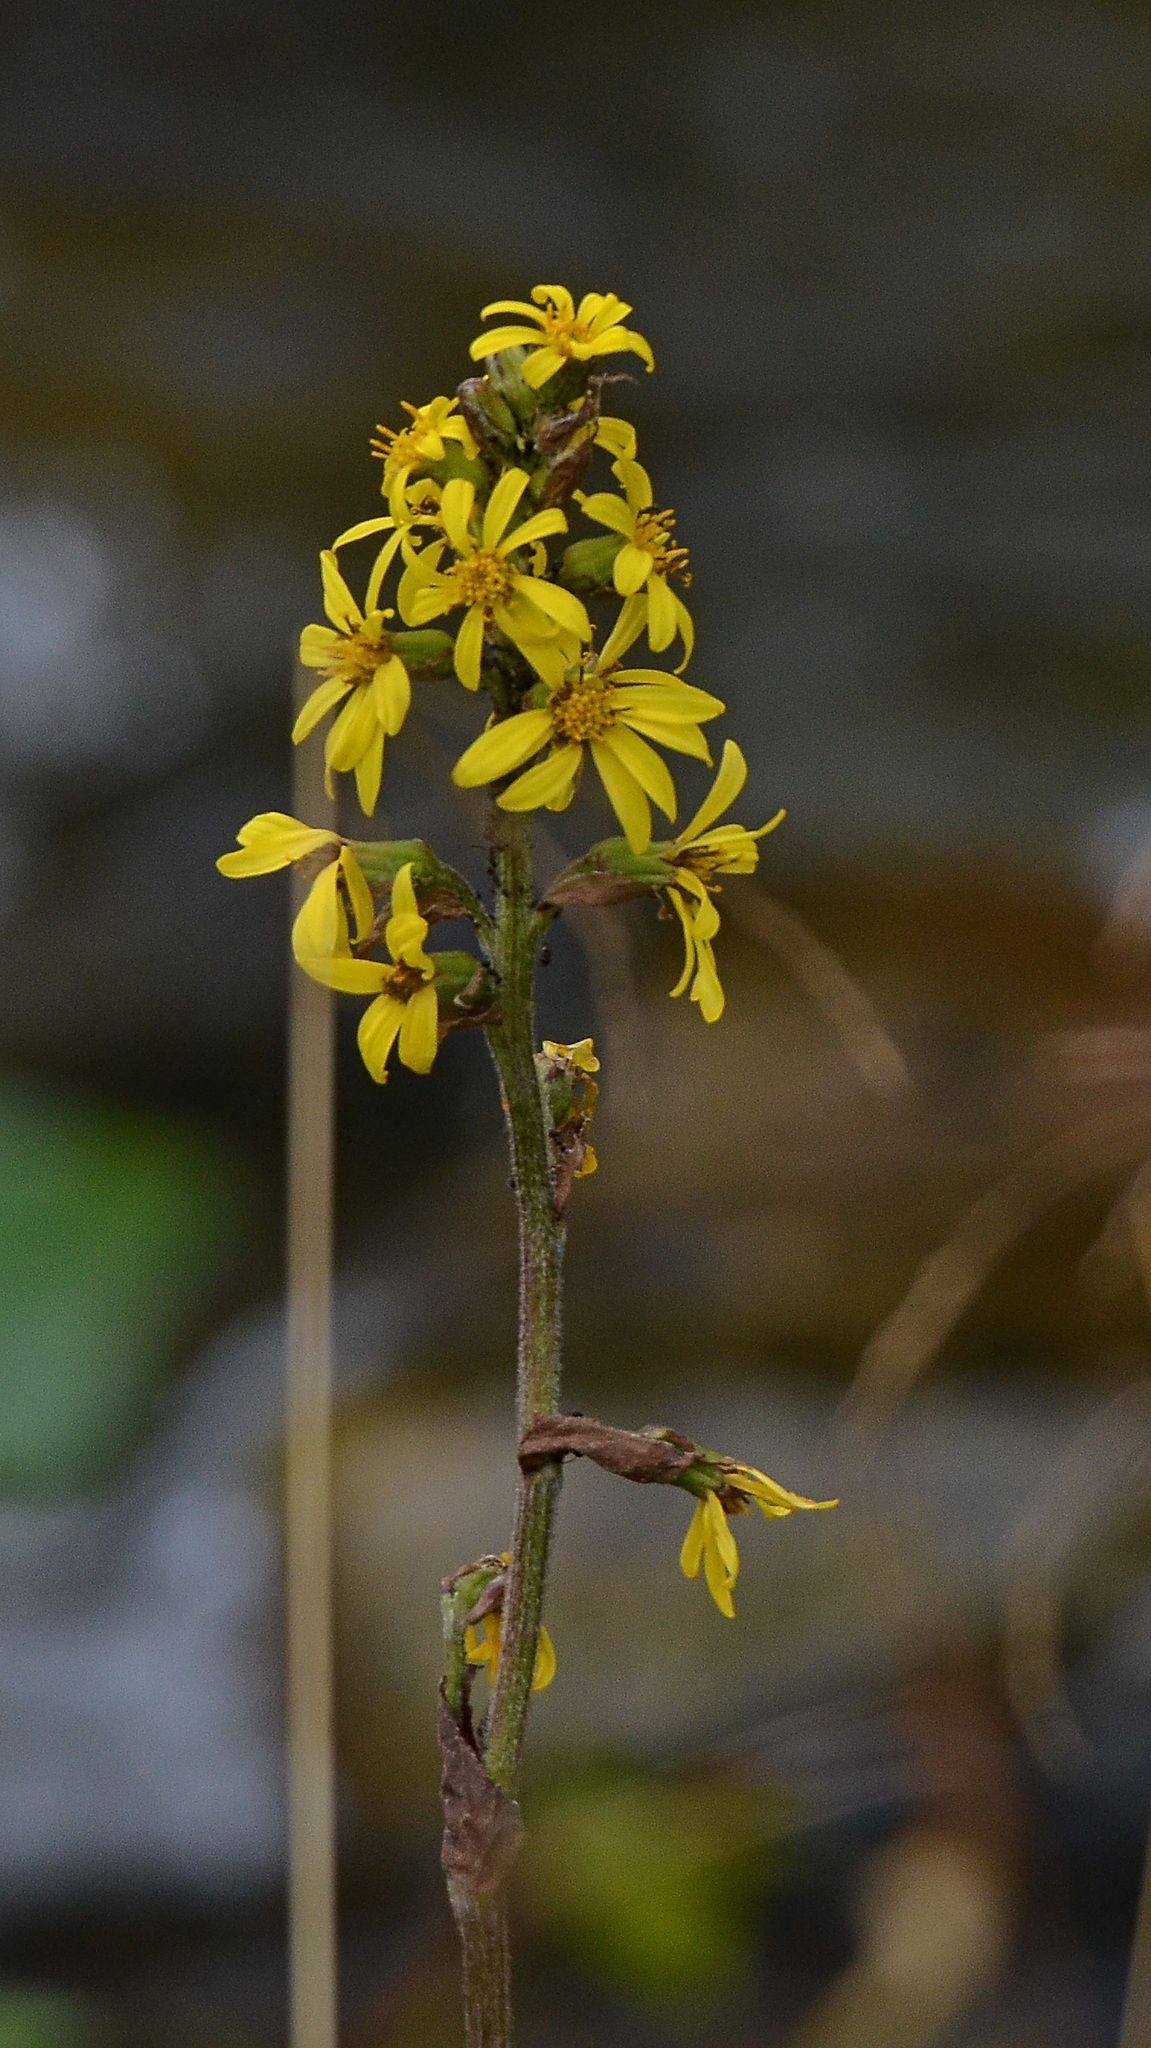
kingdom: Plantae
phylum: Tracheophyta
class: Magnoliopsida
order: Asterales
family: Asteraceae
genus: Ligularia
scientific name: Ligularia sibirica
